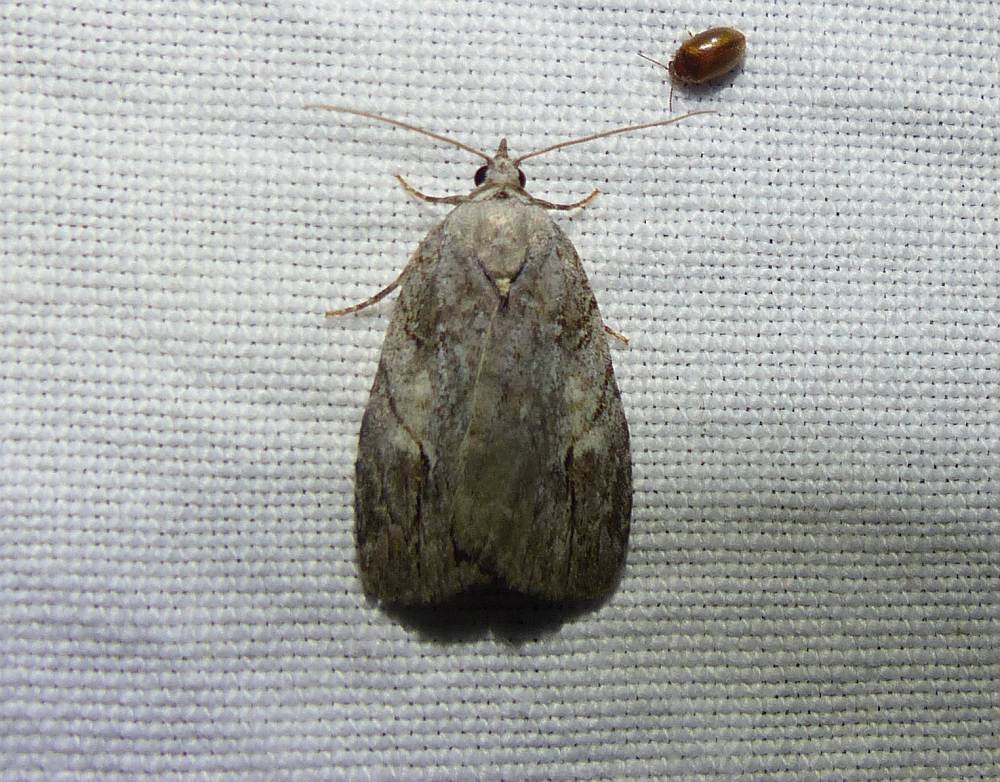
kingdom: Animalia
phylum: Arthropoda
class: Insecta
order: Lepidoptera
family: Noctuidae
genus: Balsa
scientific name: Balsa labecula
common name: White-blotched balsa moth
